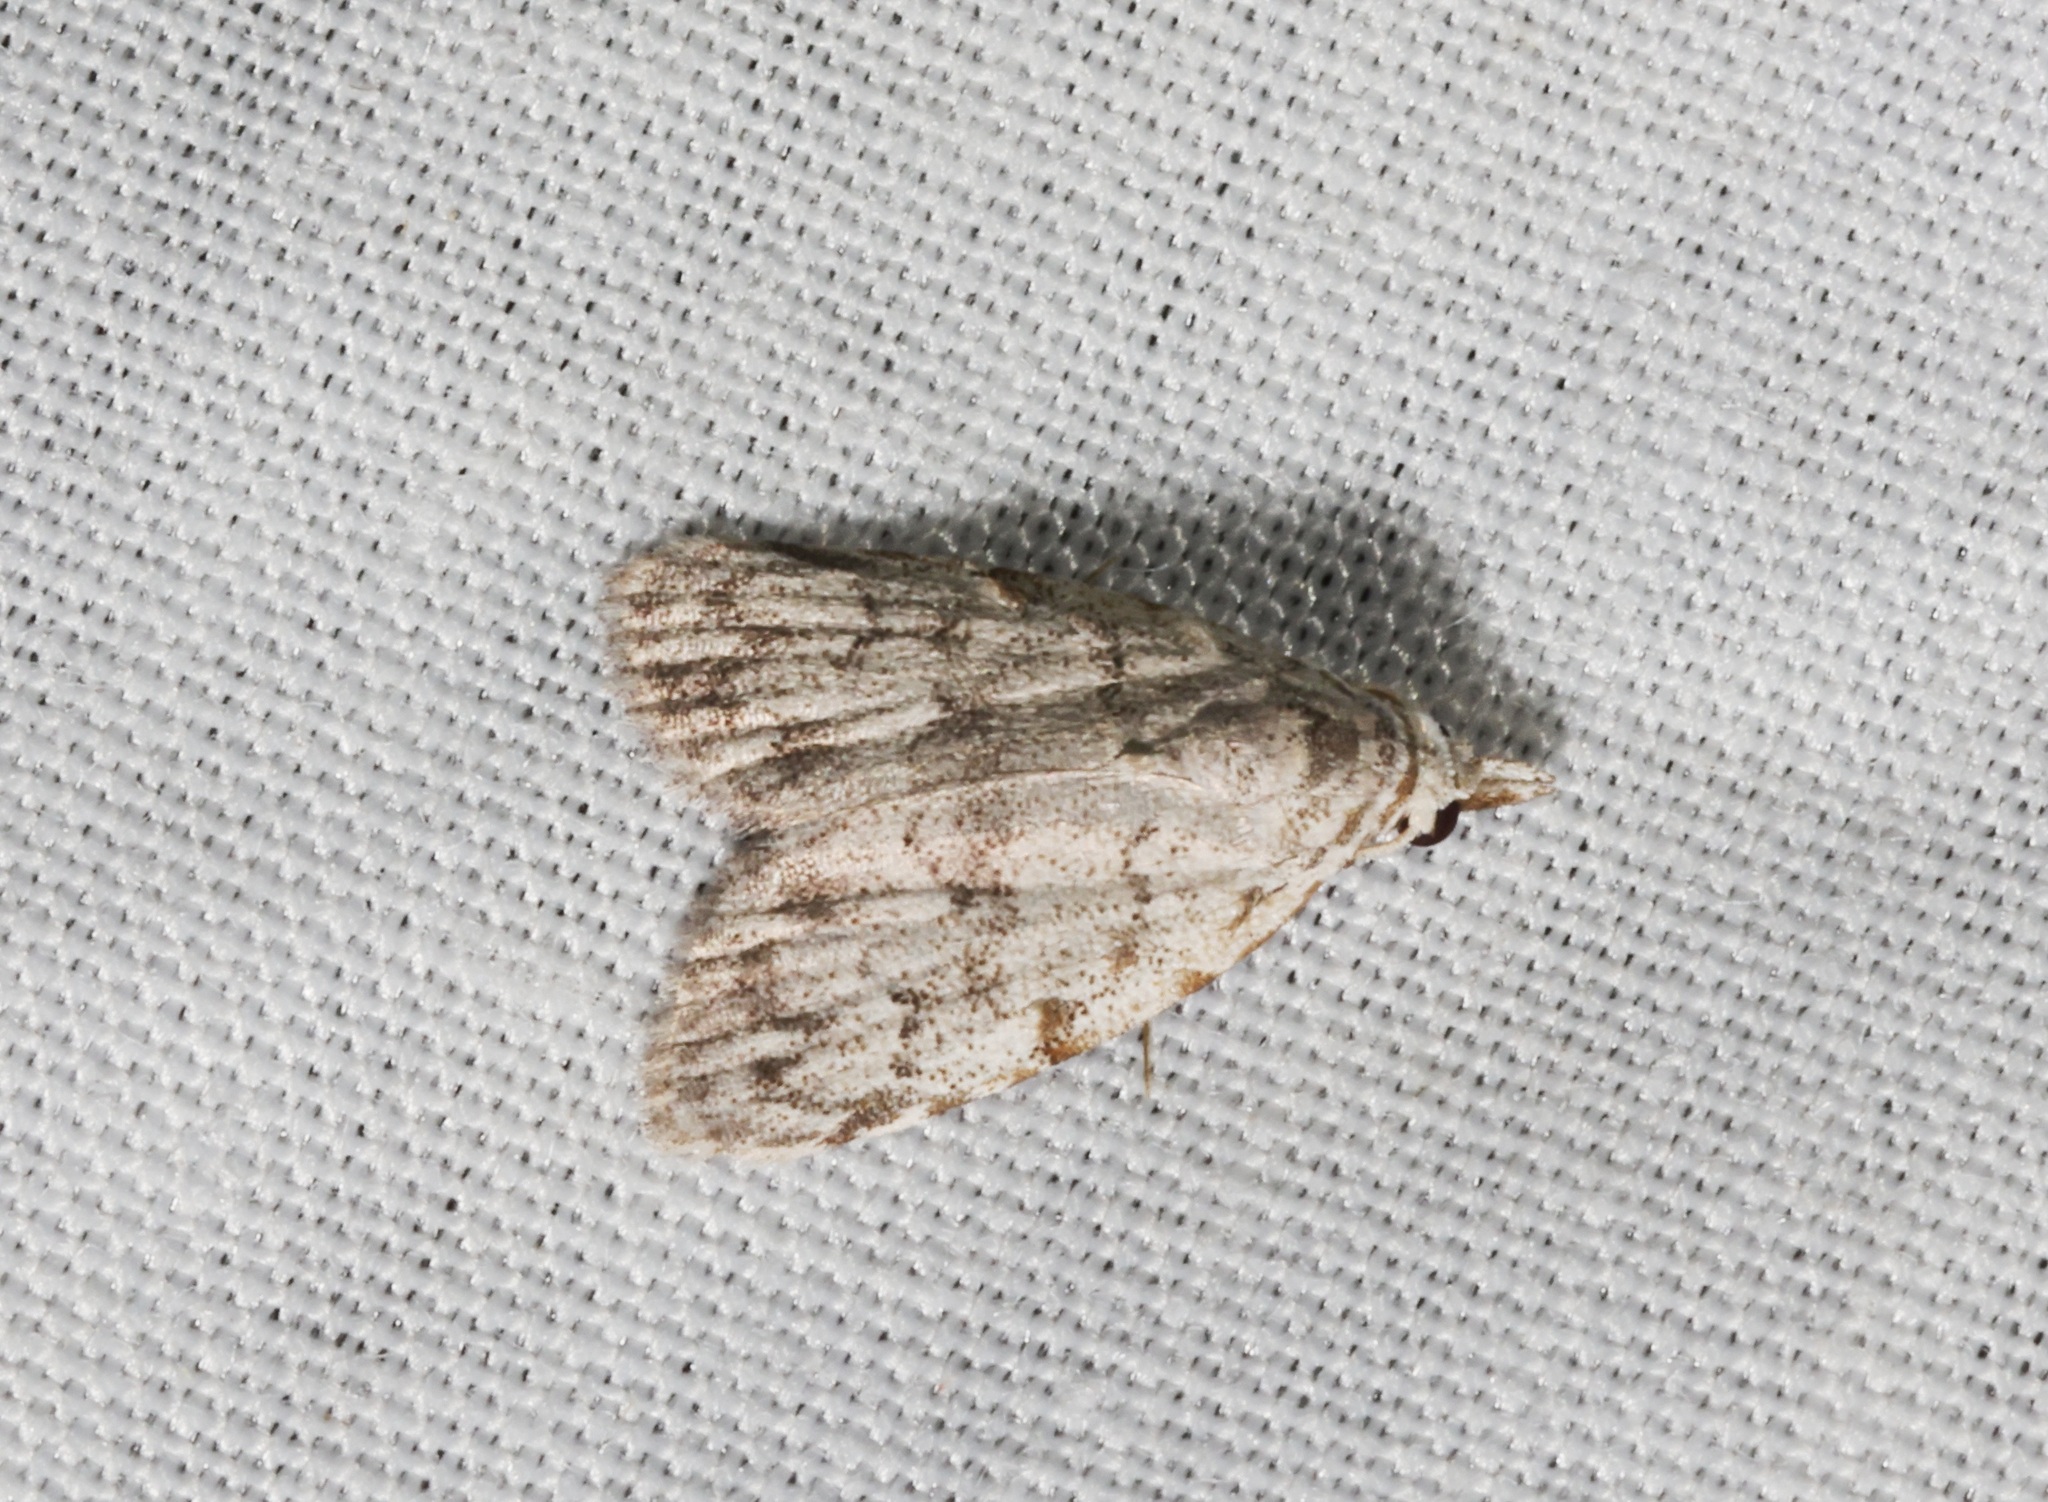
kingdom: Animalia
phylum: Arthropoda
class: Insecta
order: Lepidoptera
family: Nolidae
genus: Nola
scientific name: Nola thyrophora
